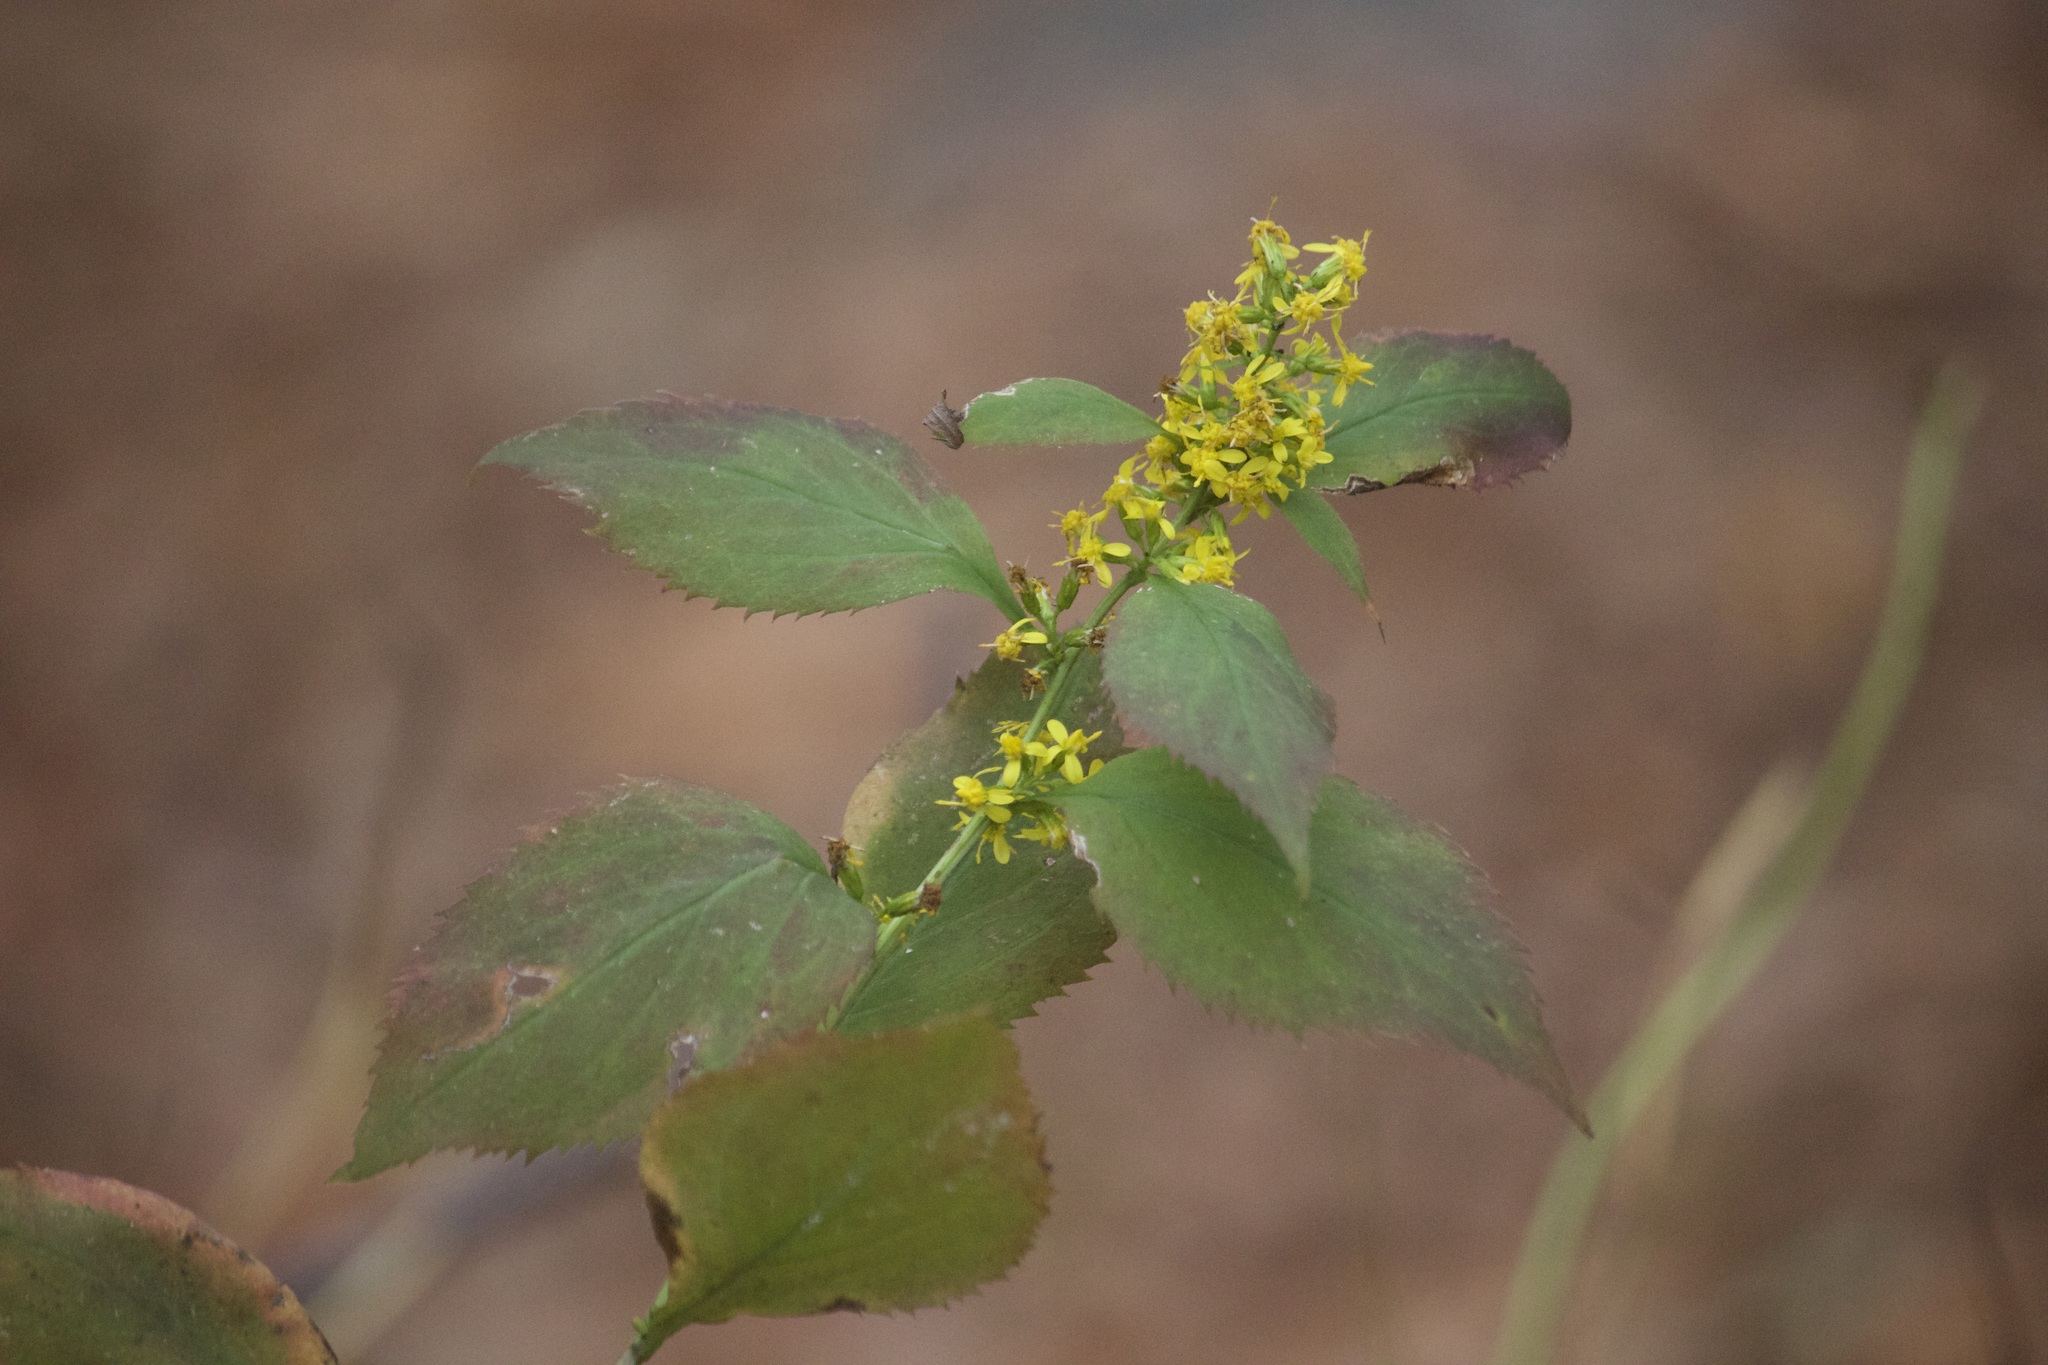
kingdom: Plantae
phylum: Tracheophyta
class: Magnoliopsida
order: Asterales
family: Asteraceae
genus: Solidago
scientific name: Solidago flexicaulis
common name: Zig-zag goldenrod
